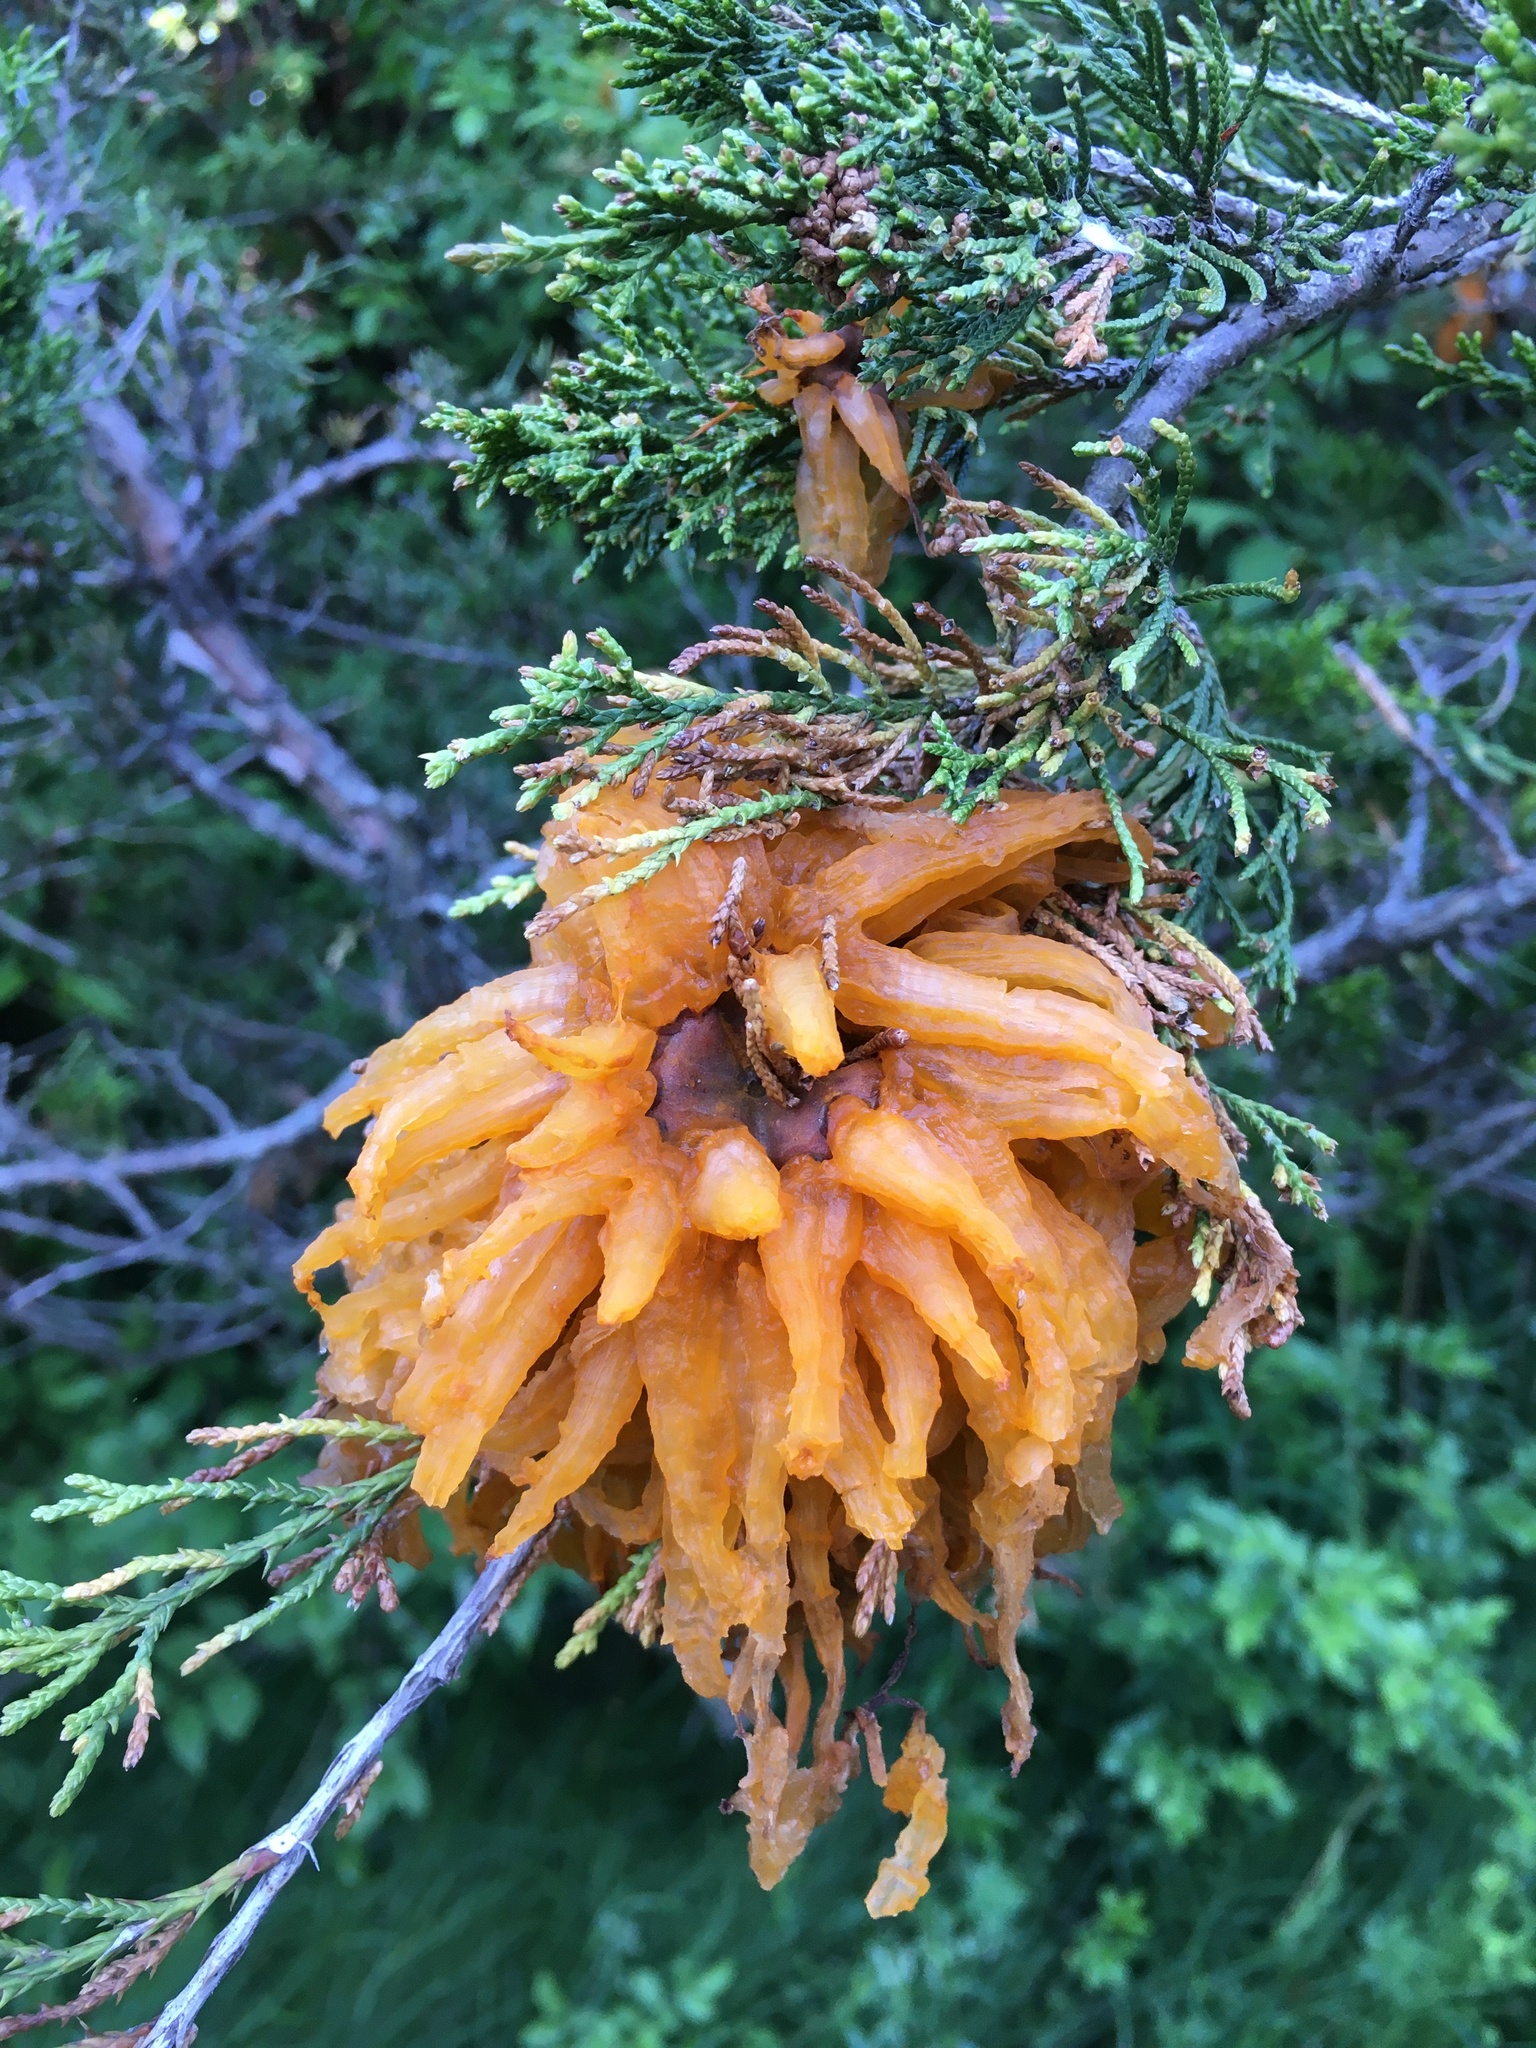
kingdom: Fungi
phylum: Basidiomycota
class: Pucciniomycetes
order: Pucciniales
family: Gymnosporangiaceae
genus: Gymnosporangium
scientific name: Gymnosporangium juniperi-virginianae
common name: Juniper-apple rust
